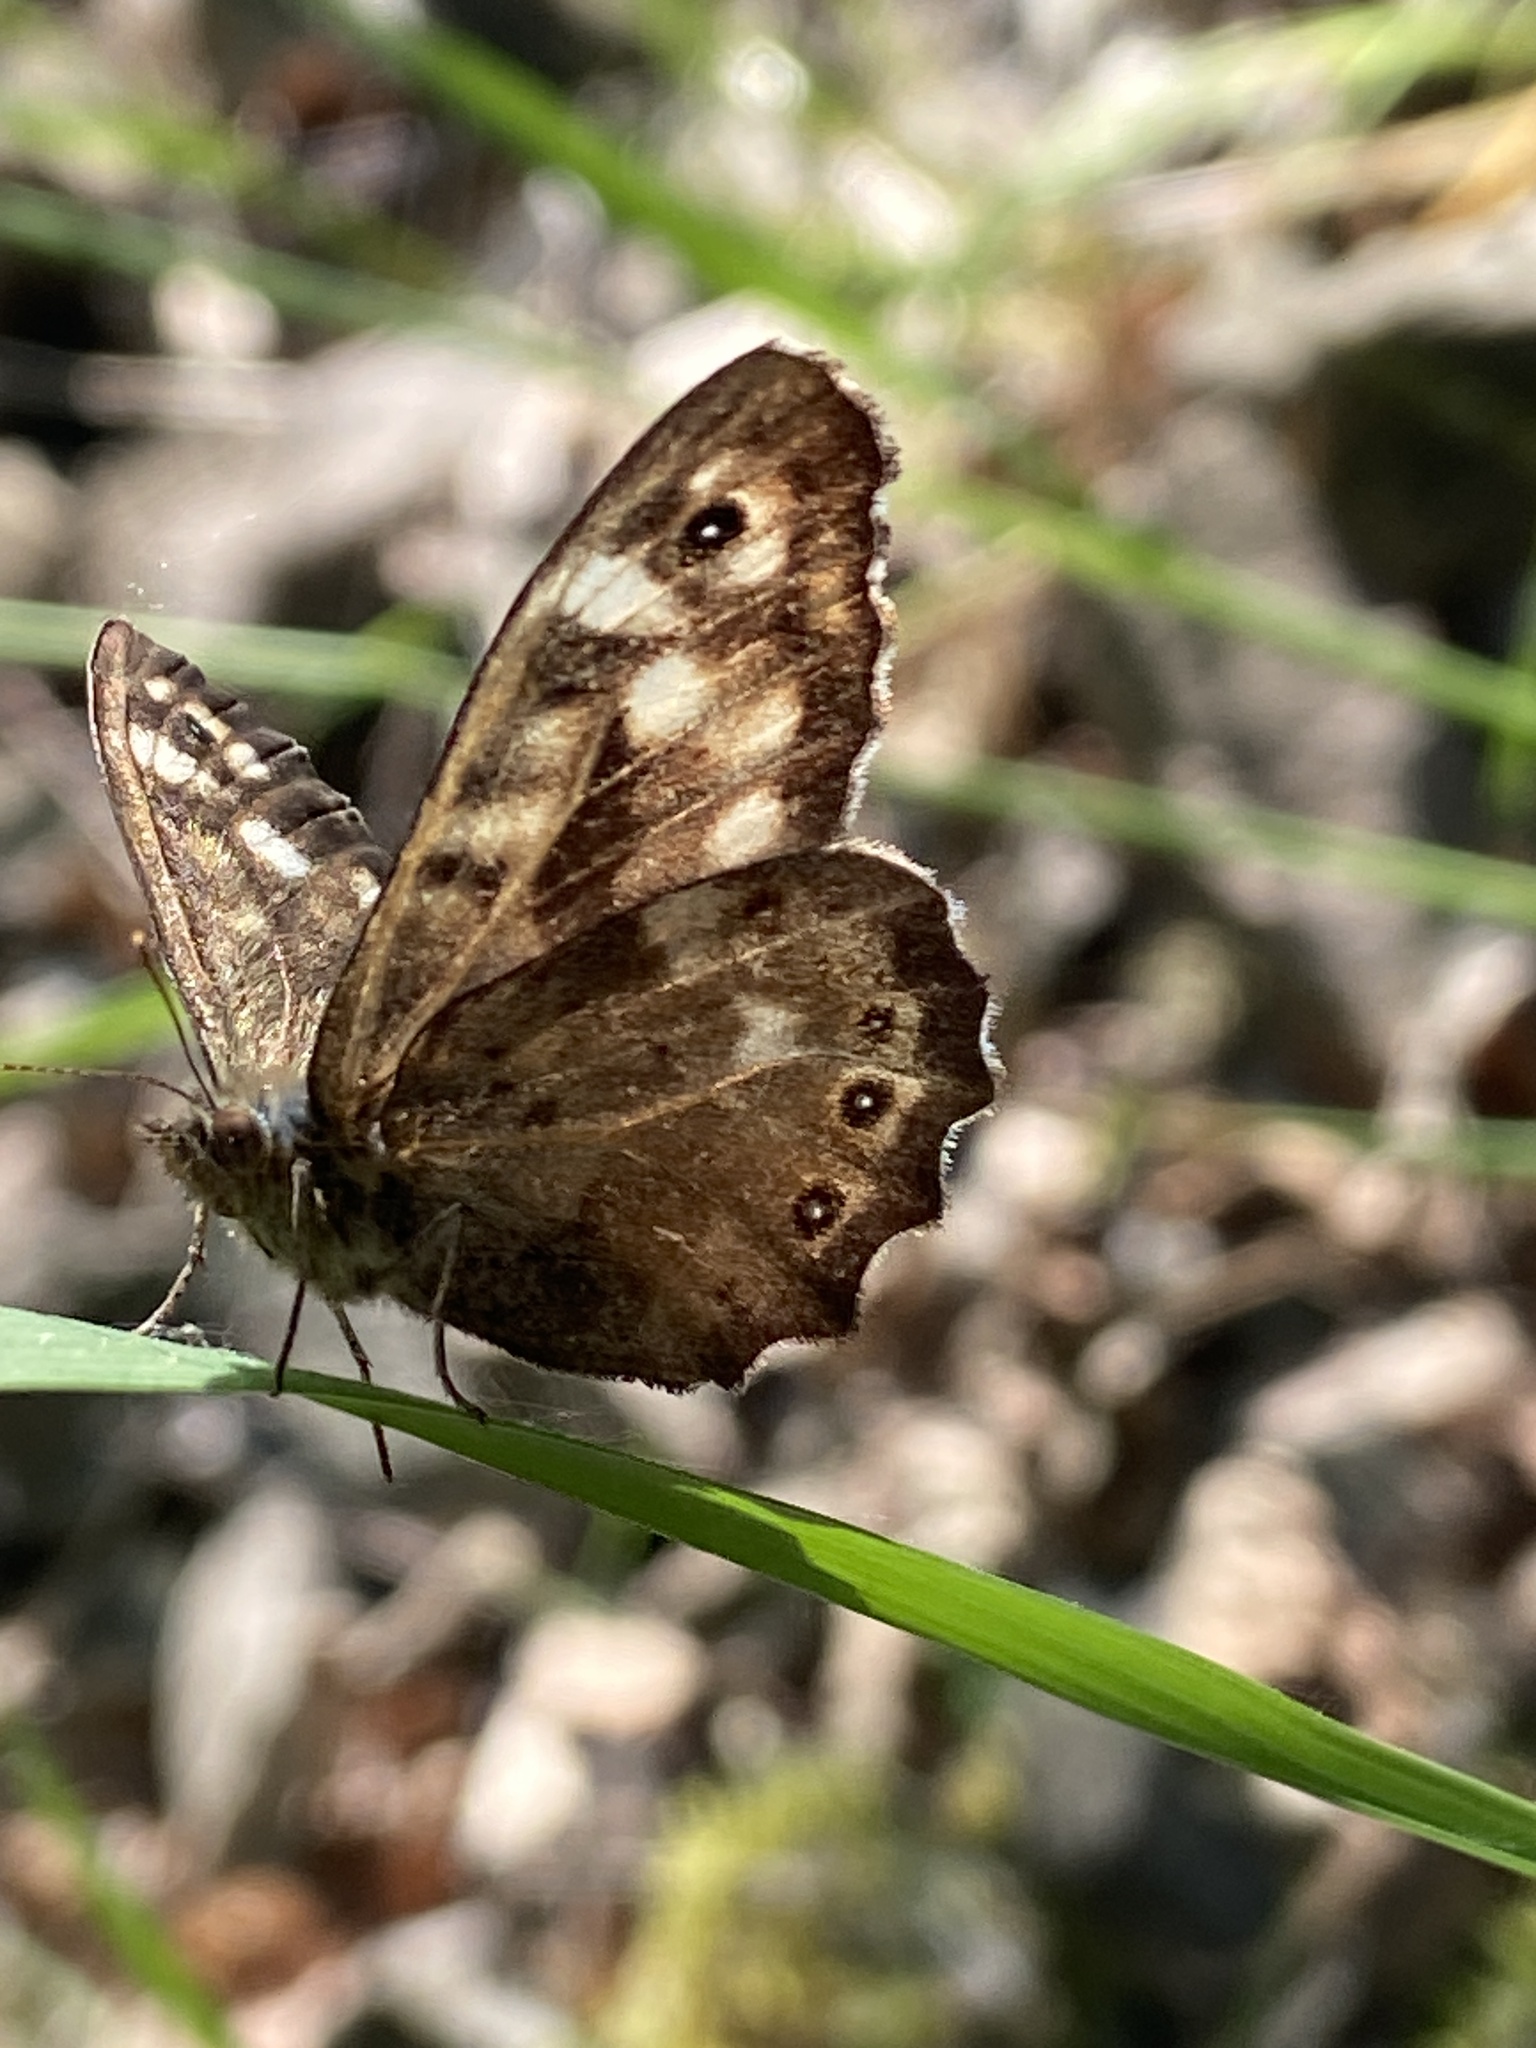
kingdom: Animalia
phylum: Arthropoda
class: Insecta
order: Lepidoptera
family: Nymphalidae
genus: Pararge
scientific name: Pararge aegeria
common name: Speckled wood
